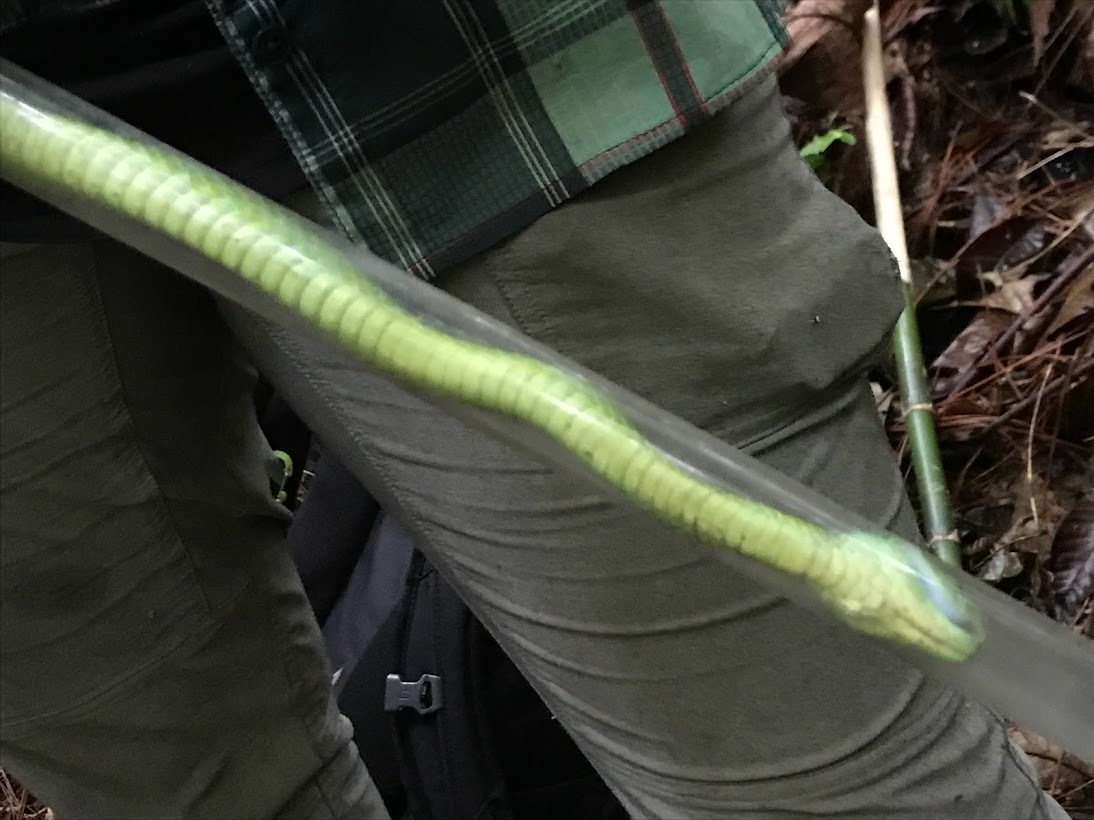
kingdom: Animalia
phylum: Chordata
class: Squamata
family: Viperidae
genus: Bothriechis
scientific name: Bothriechis marchi
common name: March's palm pit viper
